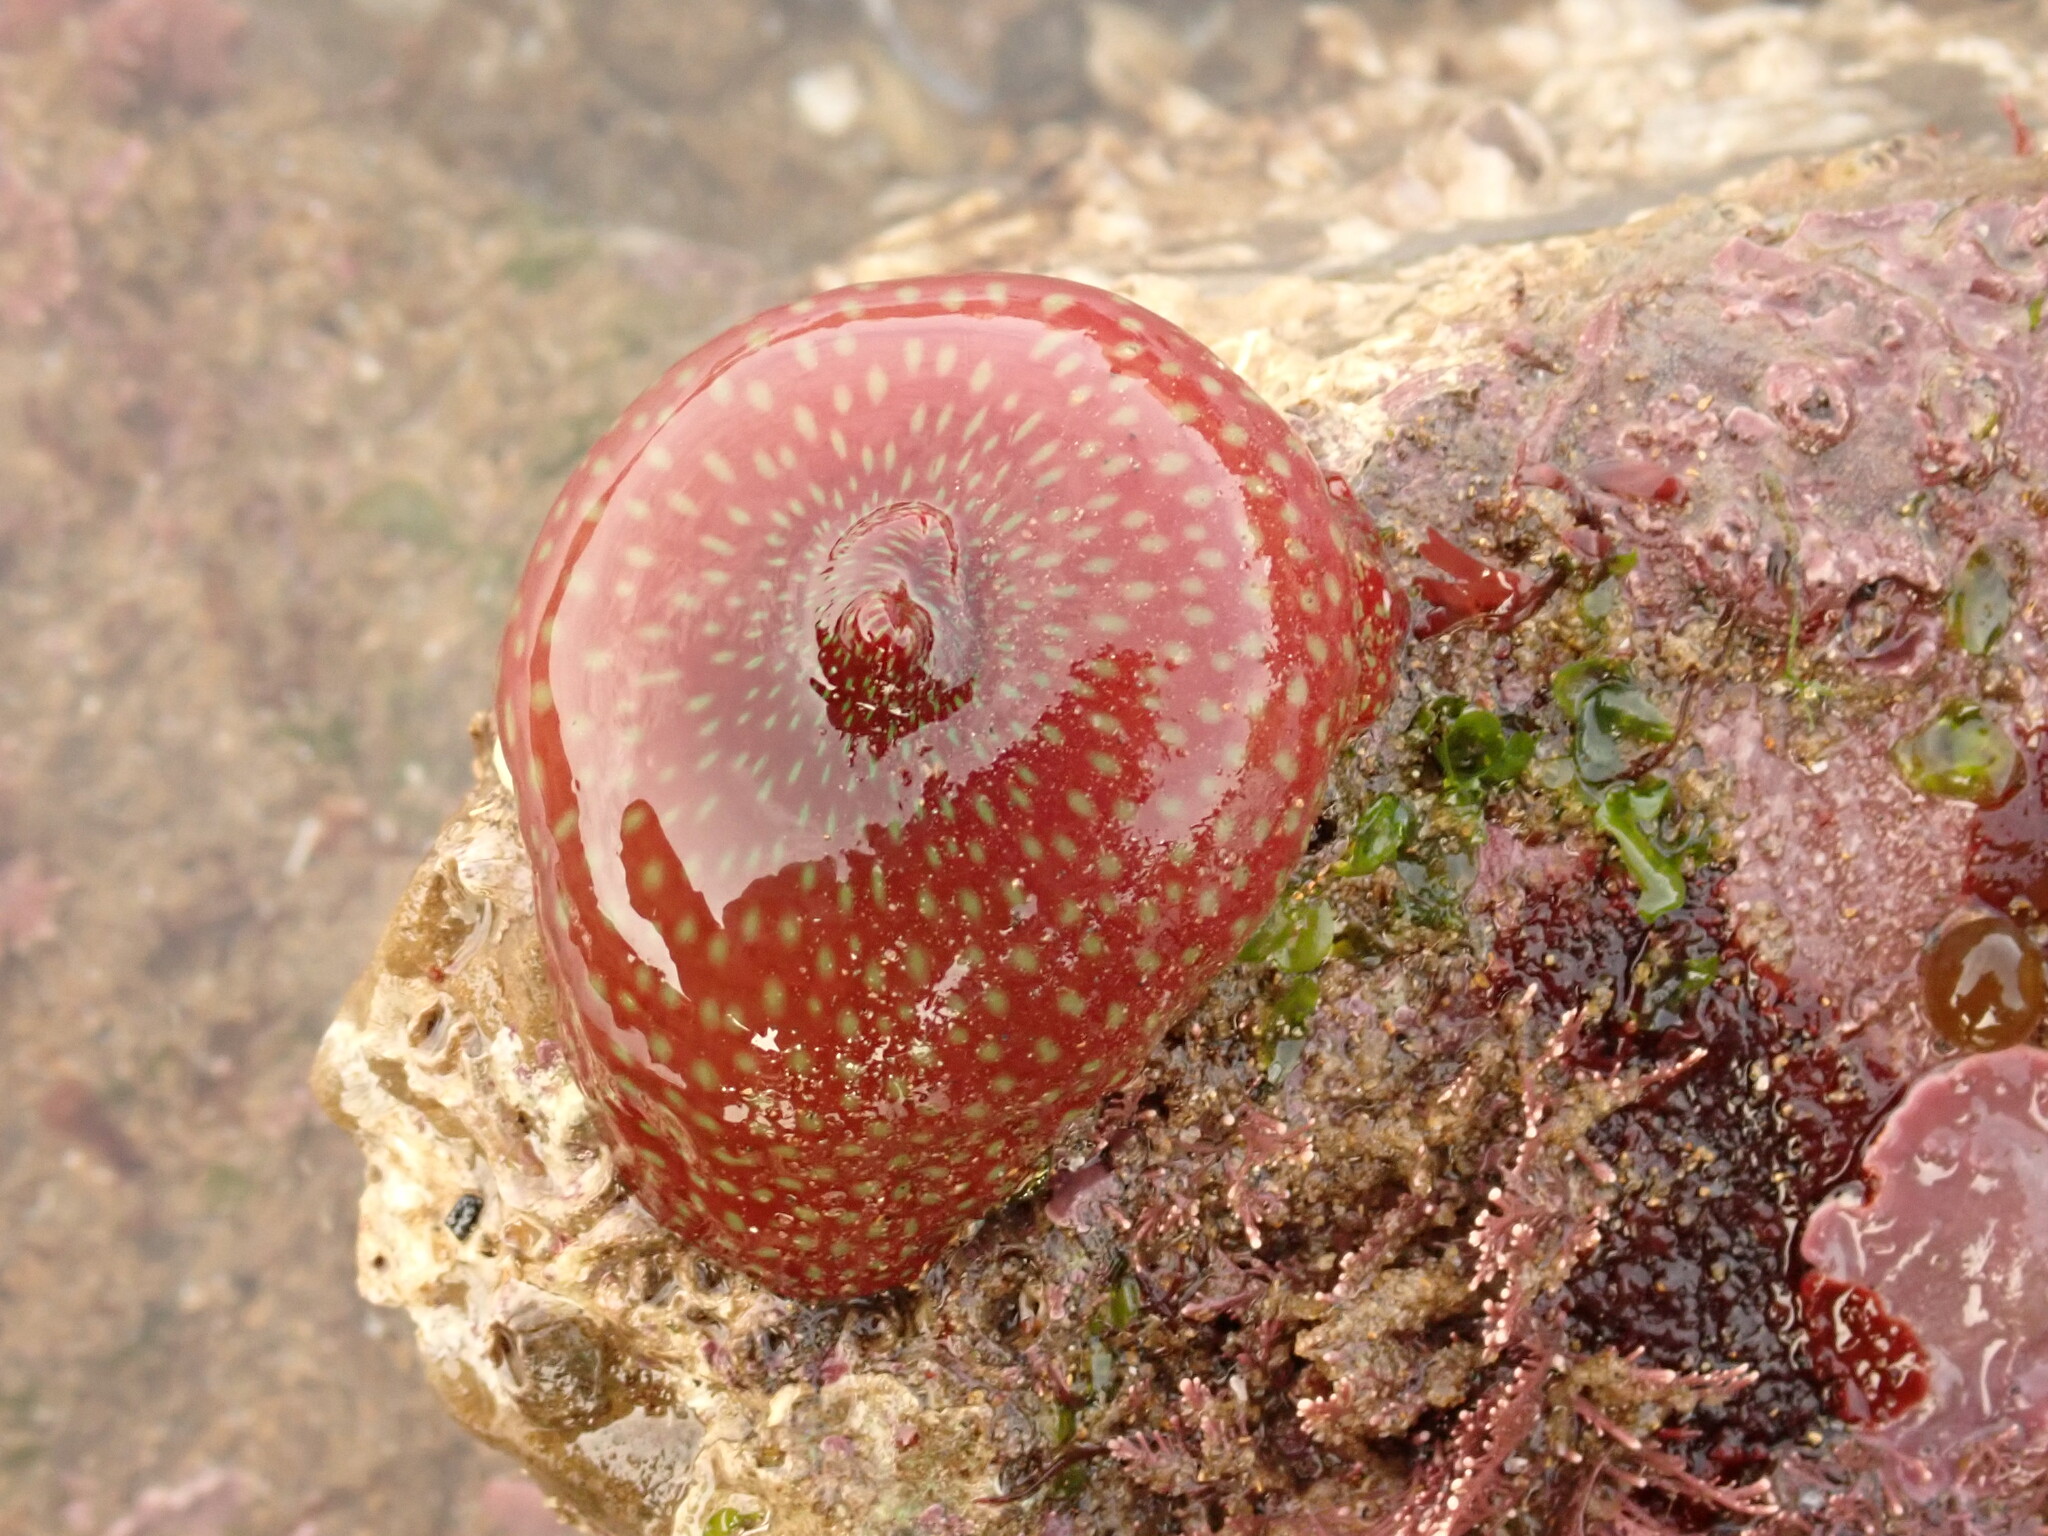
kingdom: Animalia
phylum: Cnidaria
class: Anthozoa
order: Actiniaria
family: Actiniidae
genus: Actinia
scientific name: Actinia fragacea
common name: Strawberry anemone
